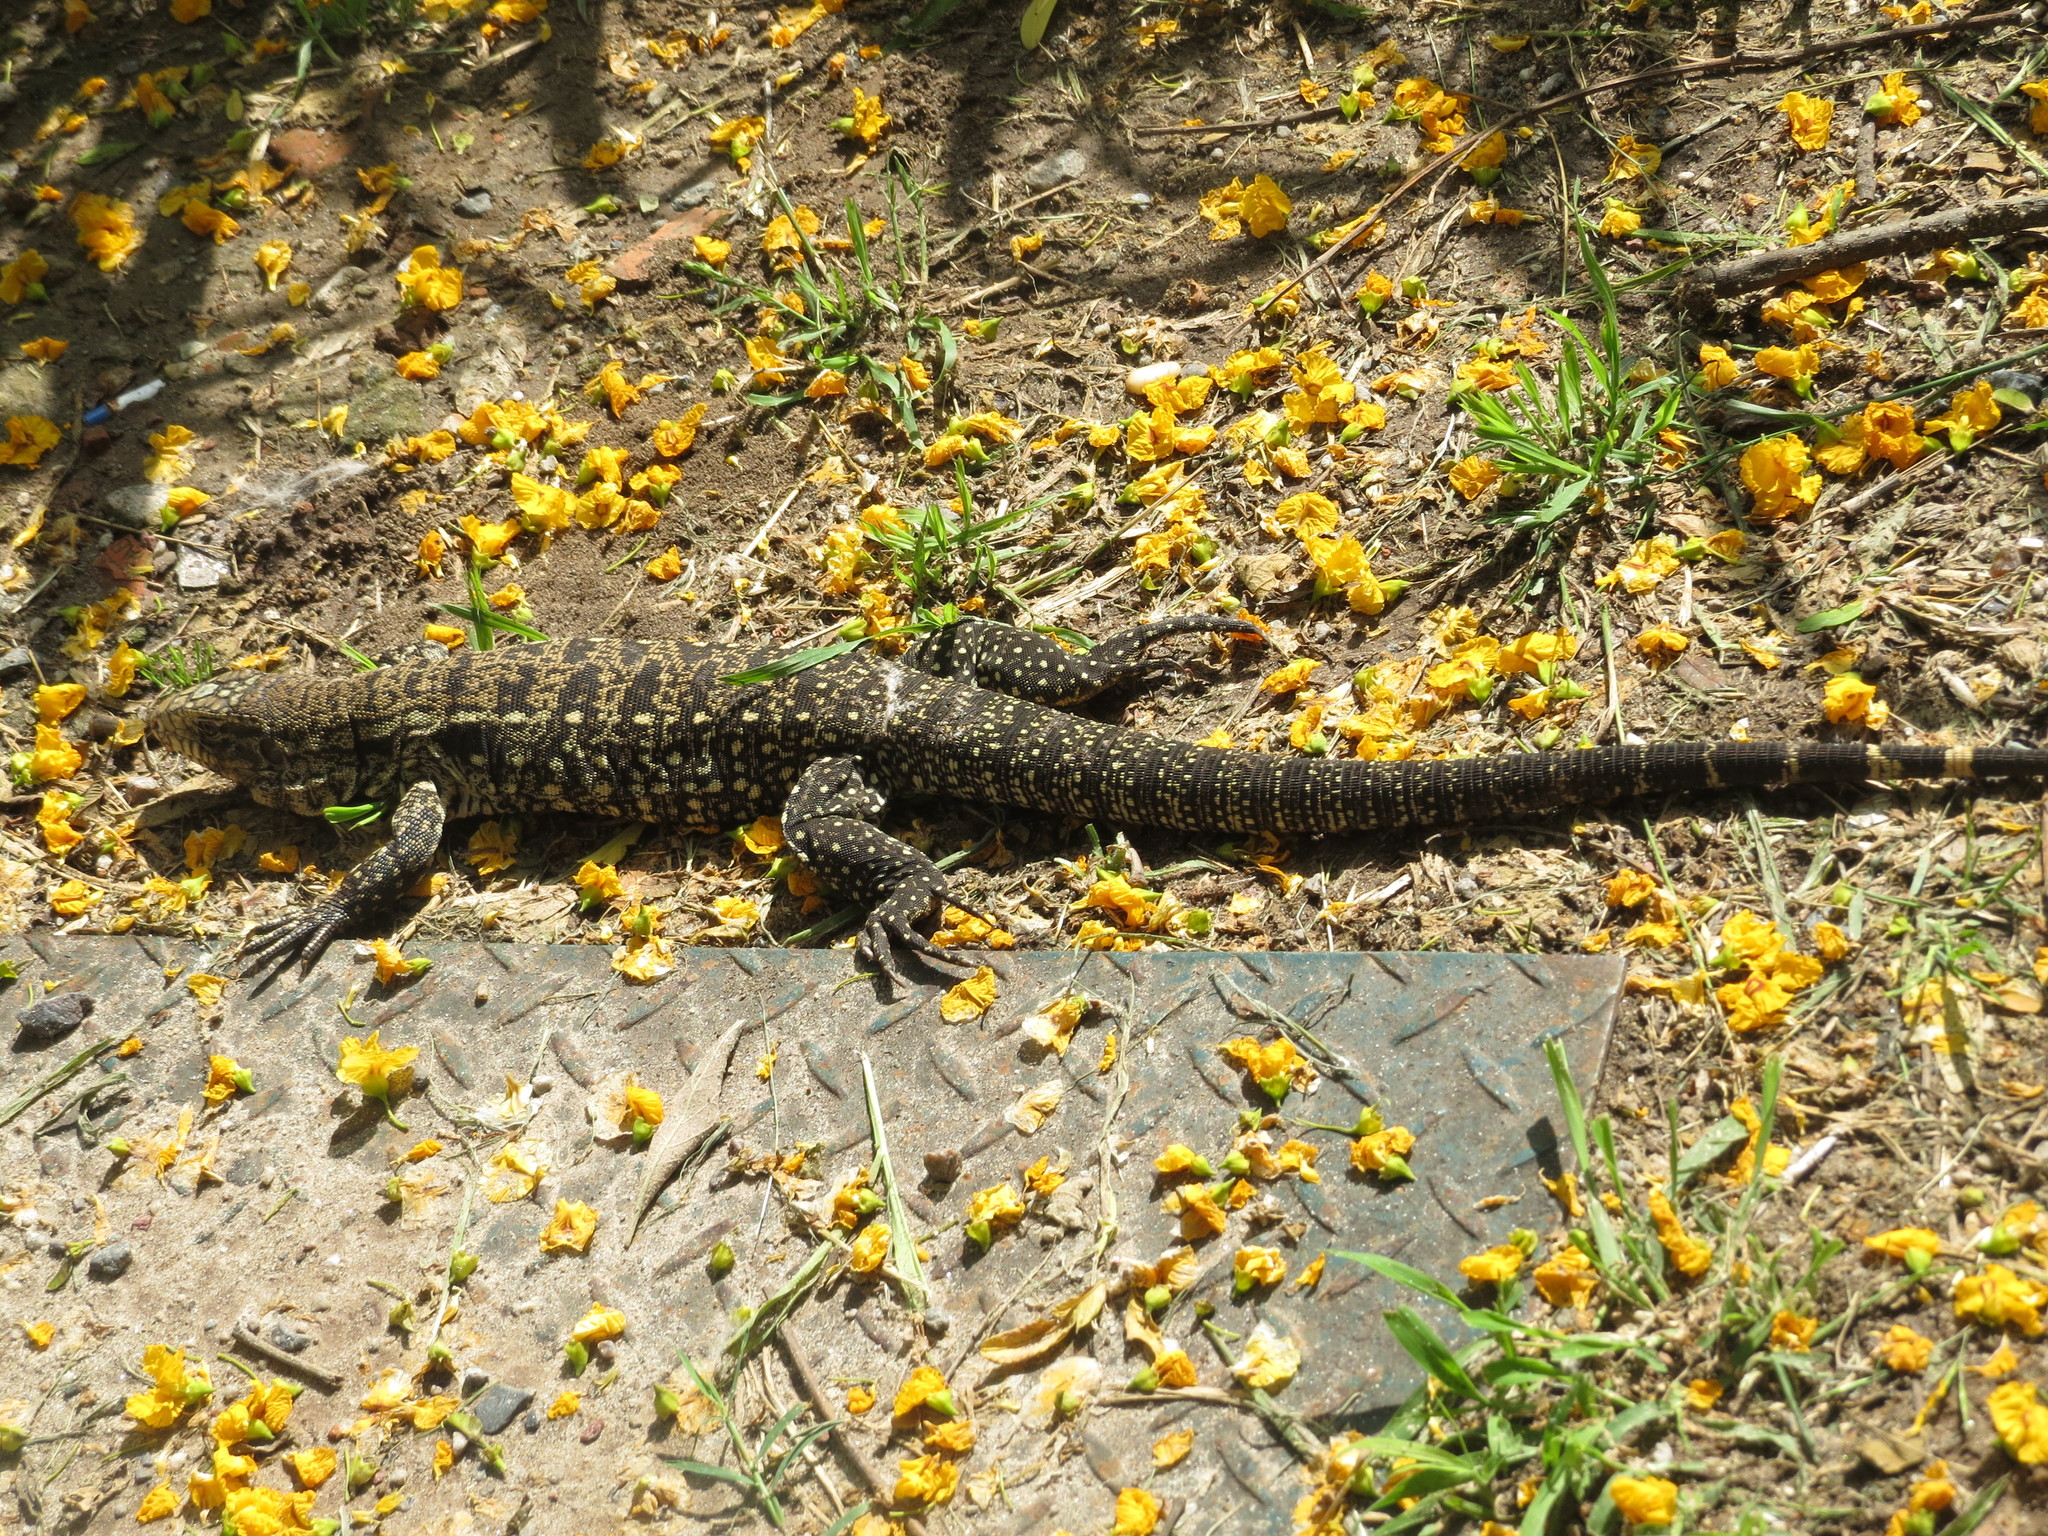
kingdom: Animalia
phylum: Chordata
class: Squamata
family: Teiidae
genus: Salvator
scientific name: Salvator merianae
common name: Argentine black and white tegu
